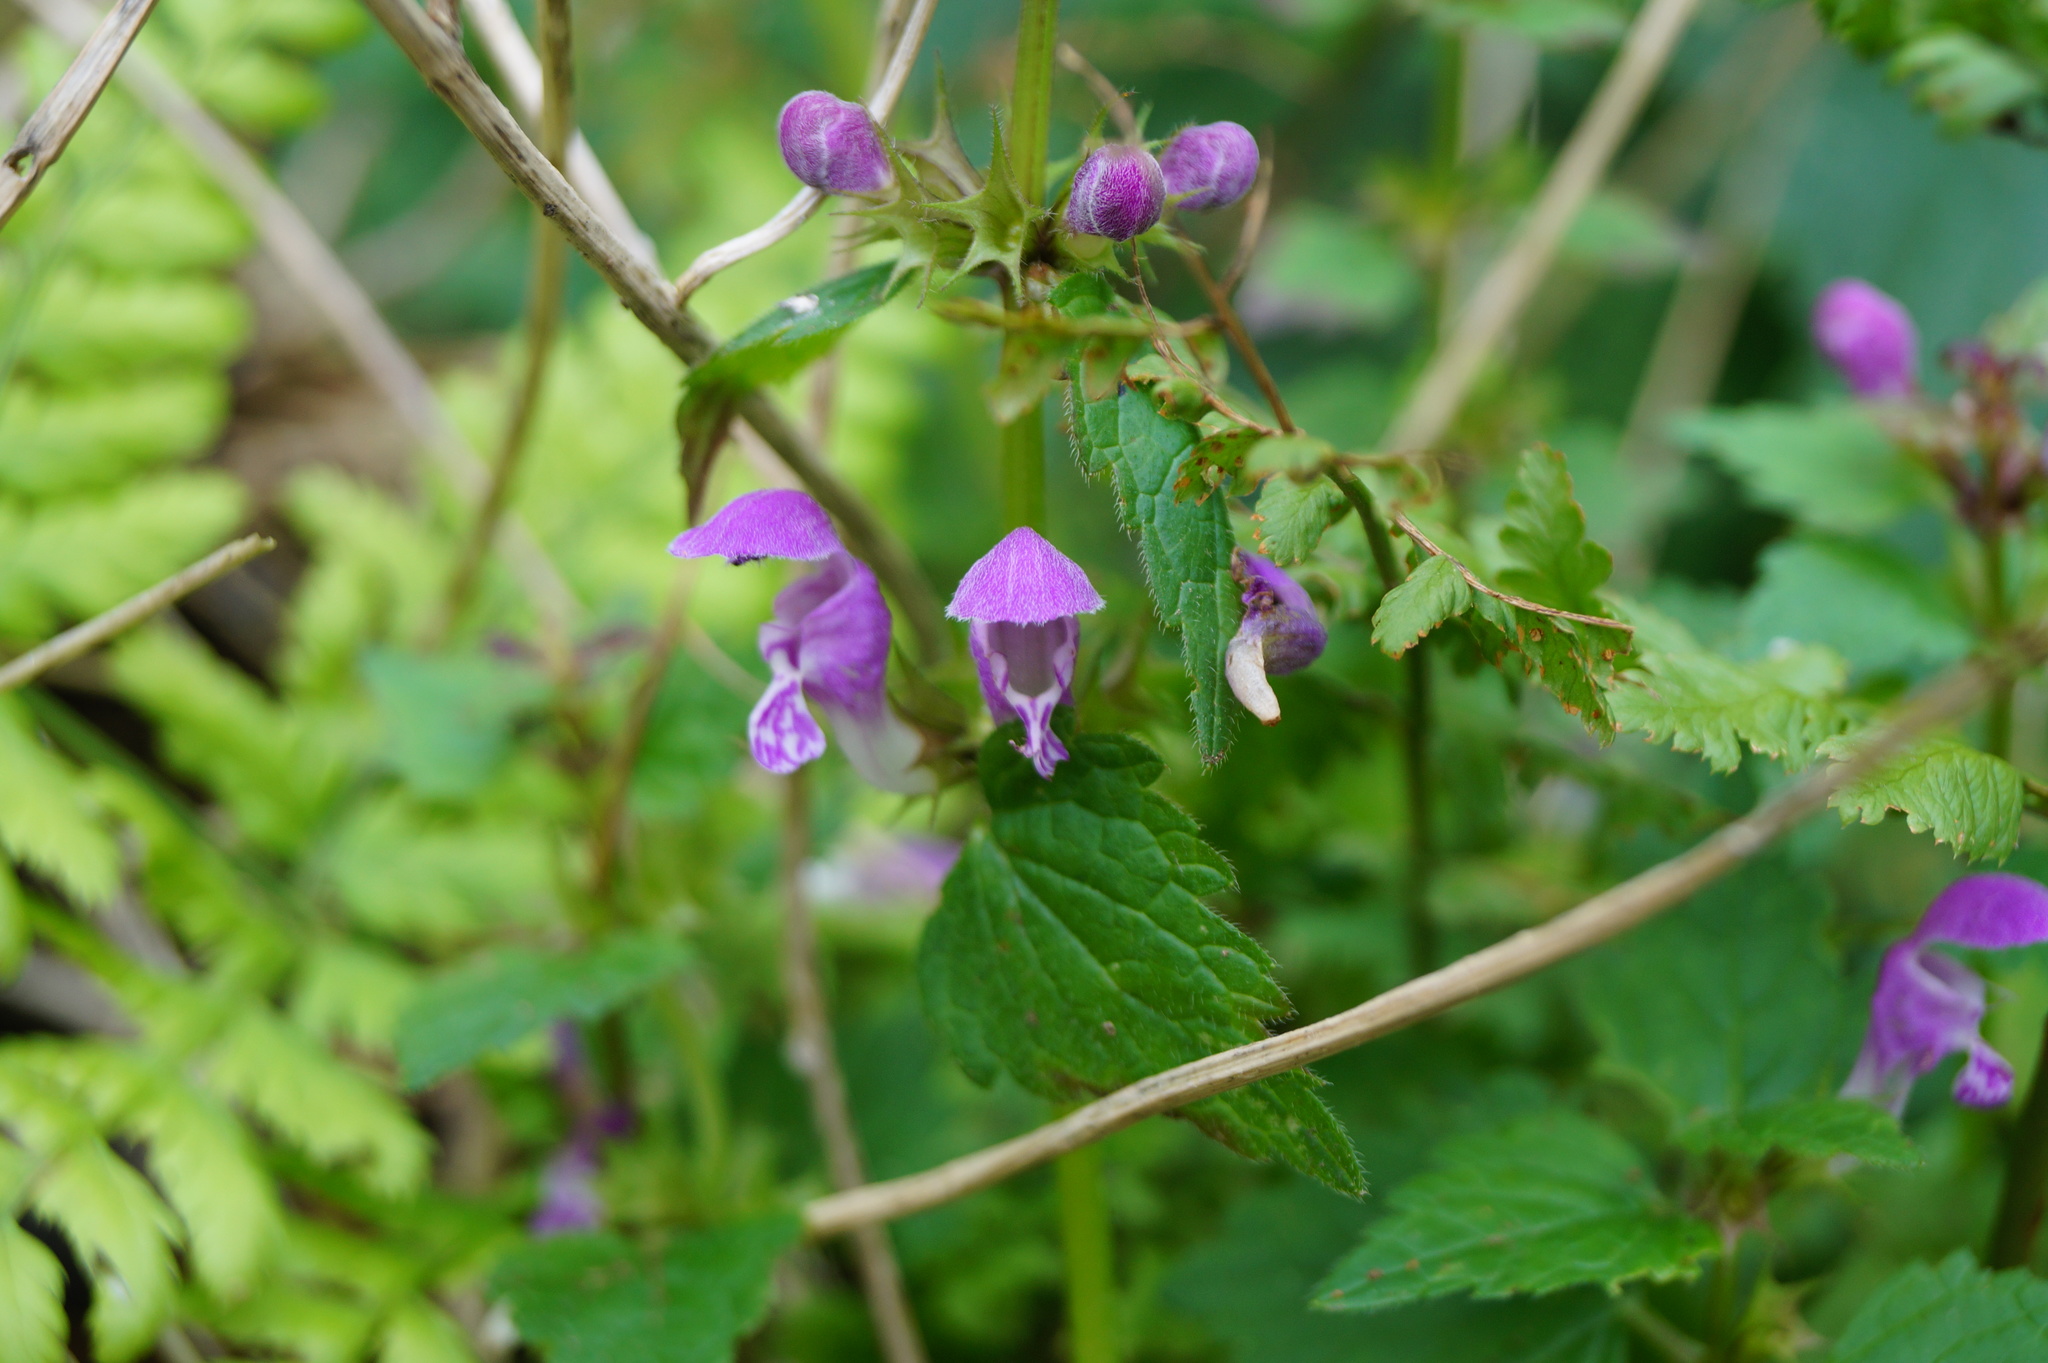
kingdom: Plantae
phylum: Tracheophyta
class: Magnoliopsida
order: Lamiales
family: Lamiaceae
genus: Lamium
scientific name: Lamium maculatum
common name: Spotted dead-nettle
